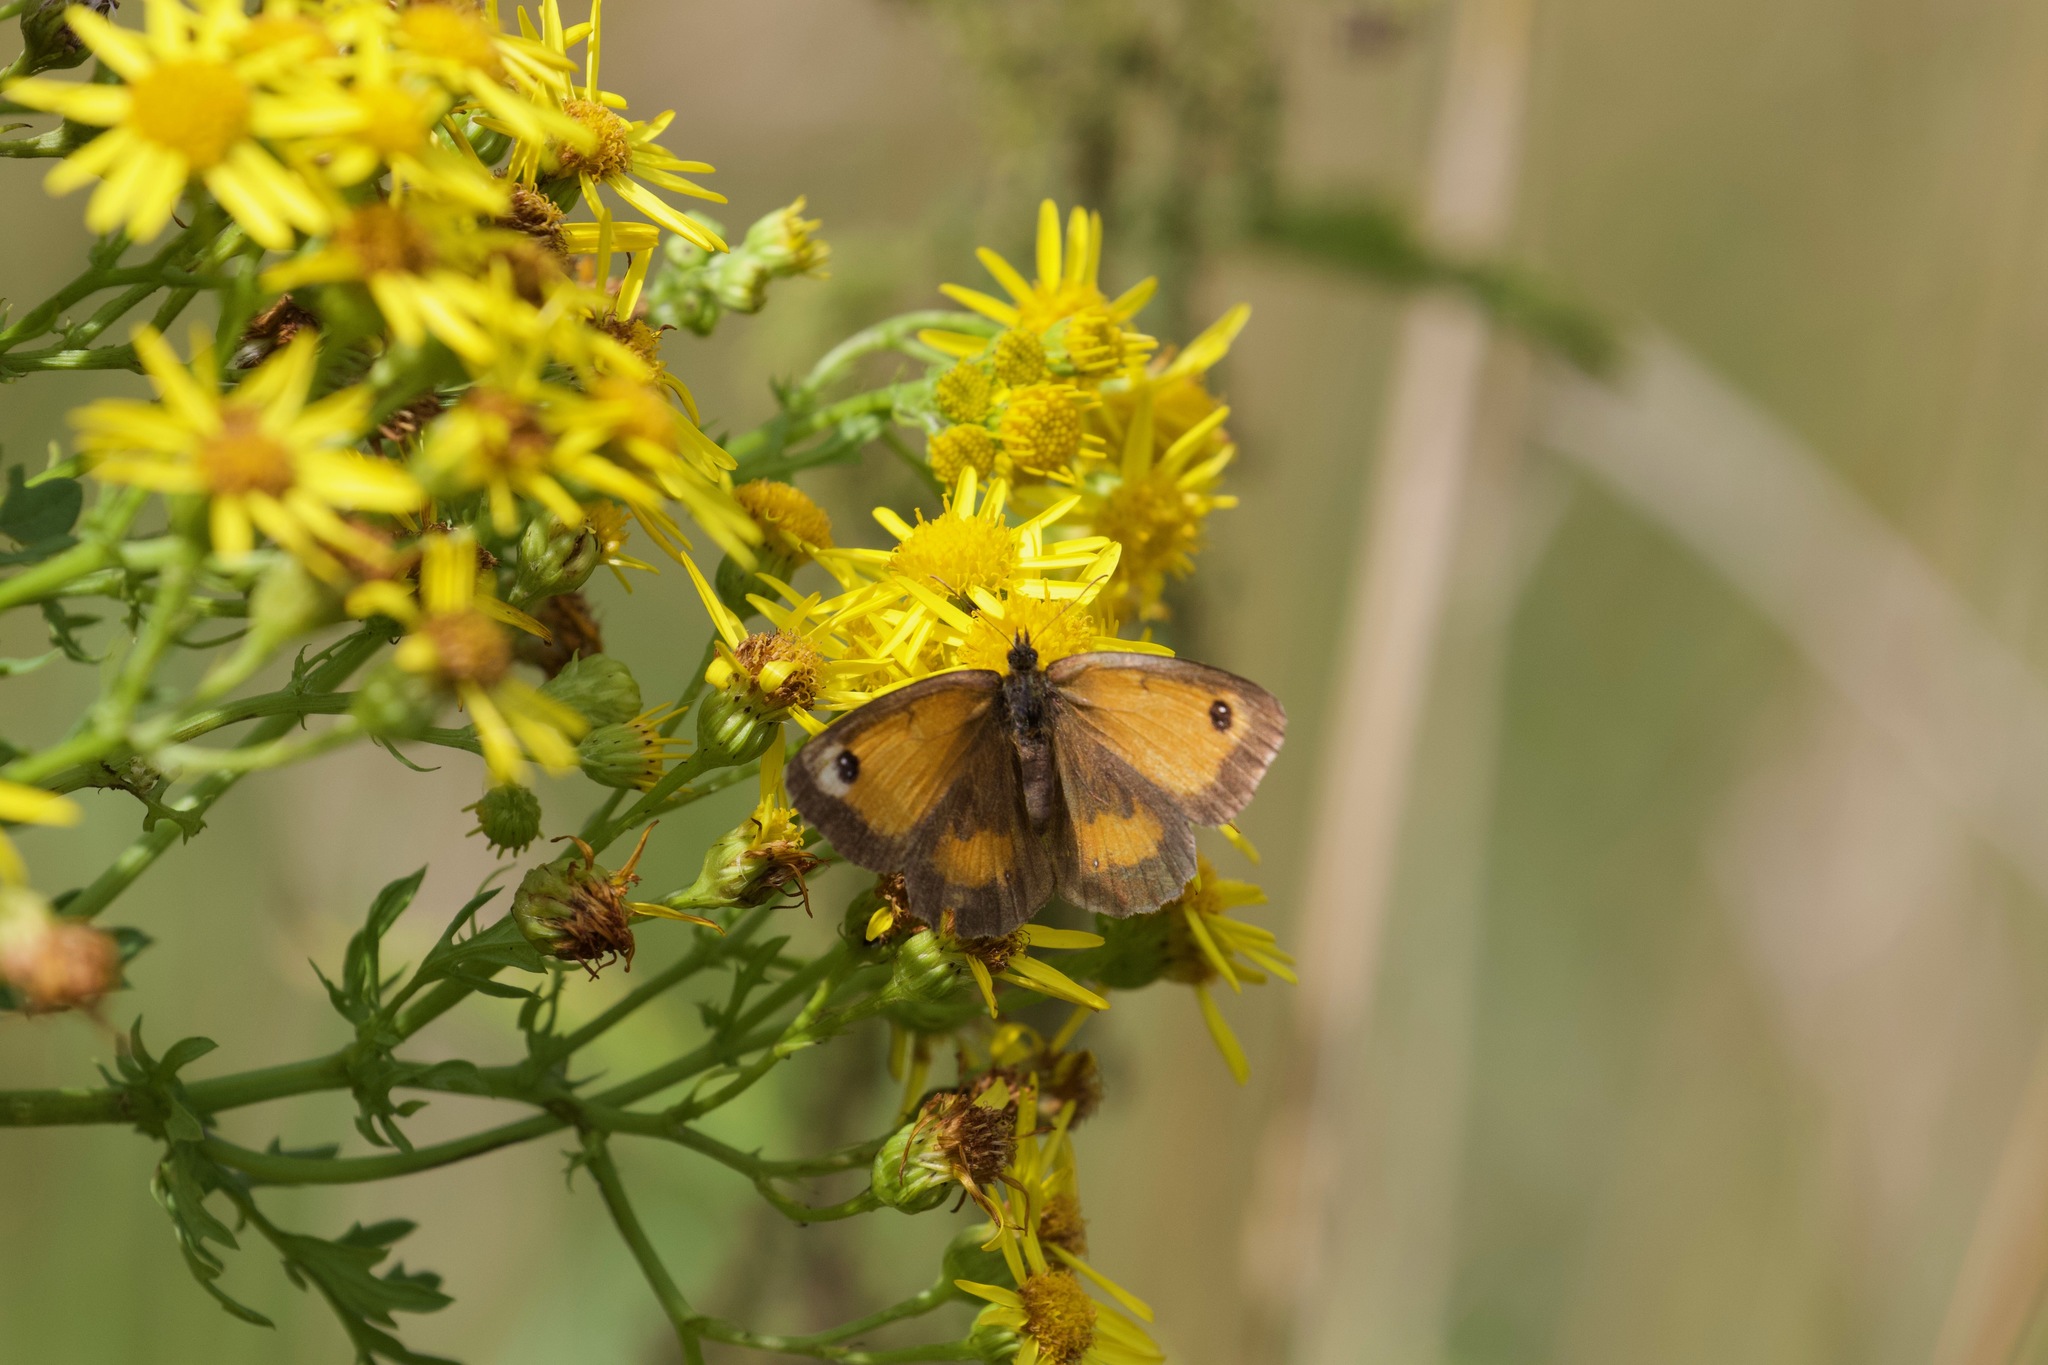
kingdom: Animalia
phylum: Arthropoda
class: Insecta
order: Lepidoptera
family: Nymphalidae
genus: Pyronia
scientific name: Pyronia tithonus
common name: Gatekeeper
